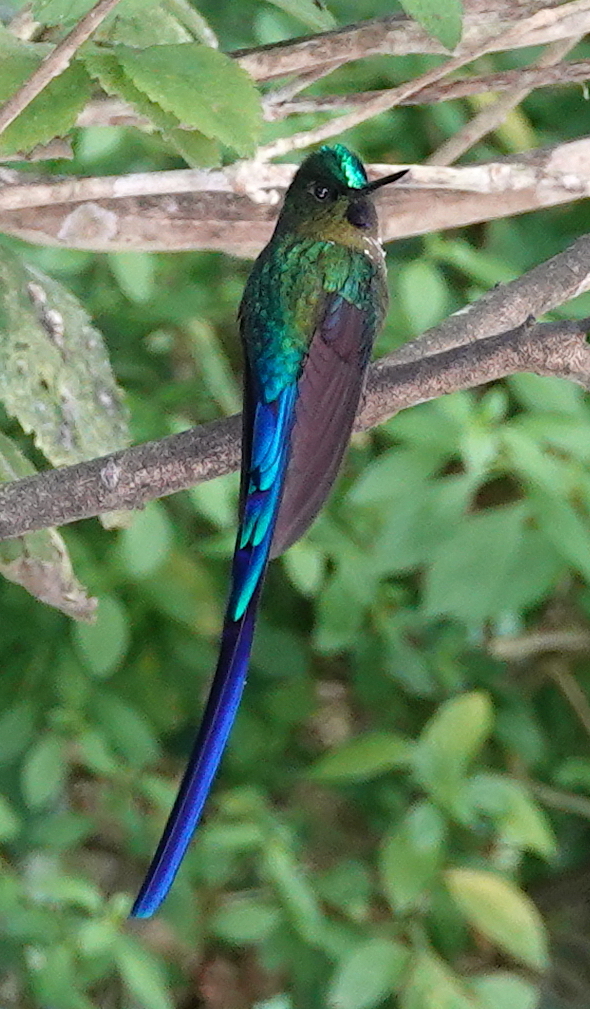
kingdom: Animalia
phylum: Chordata
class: Aves
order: Apodiformes
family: Trochilidae
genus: Aglaiocercus
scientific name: Aglaiocercus coelestis
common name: Violet-tailed sylph
